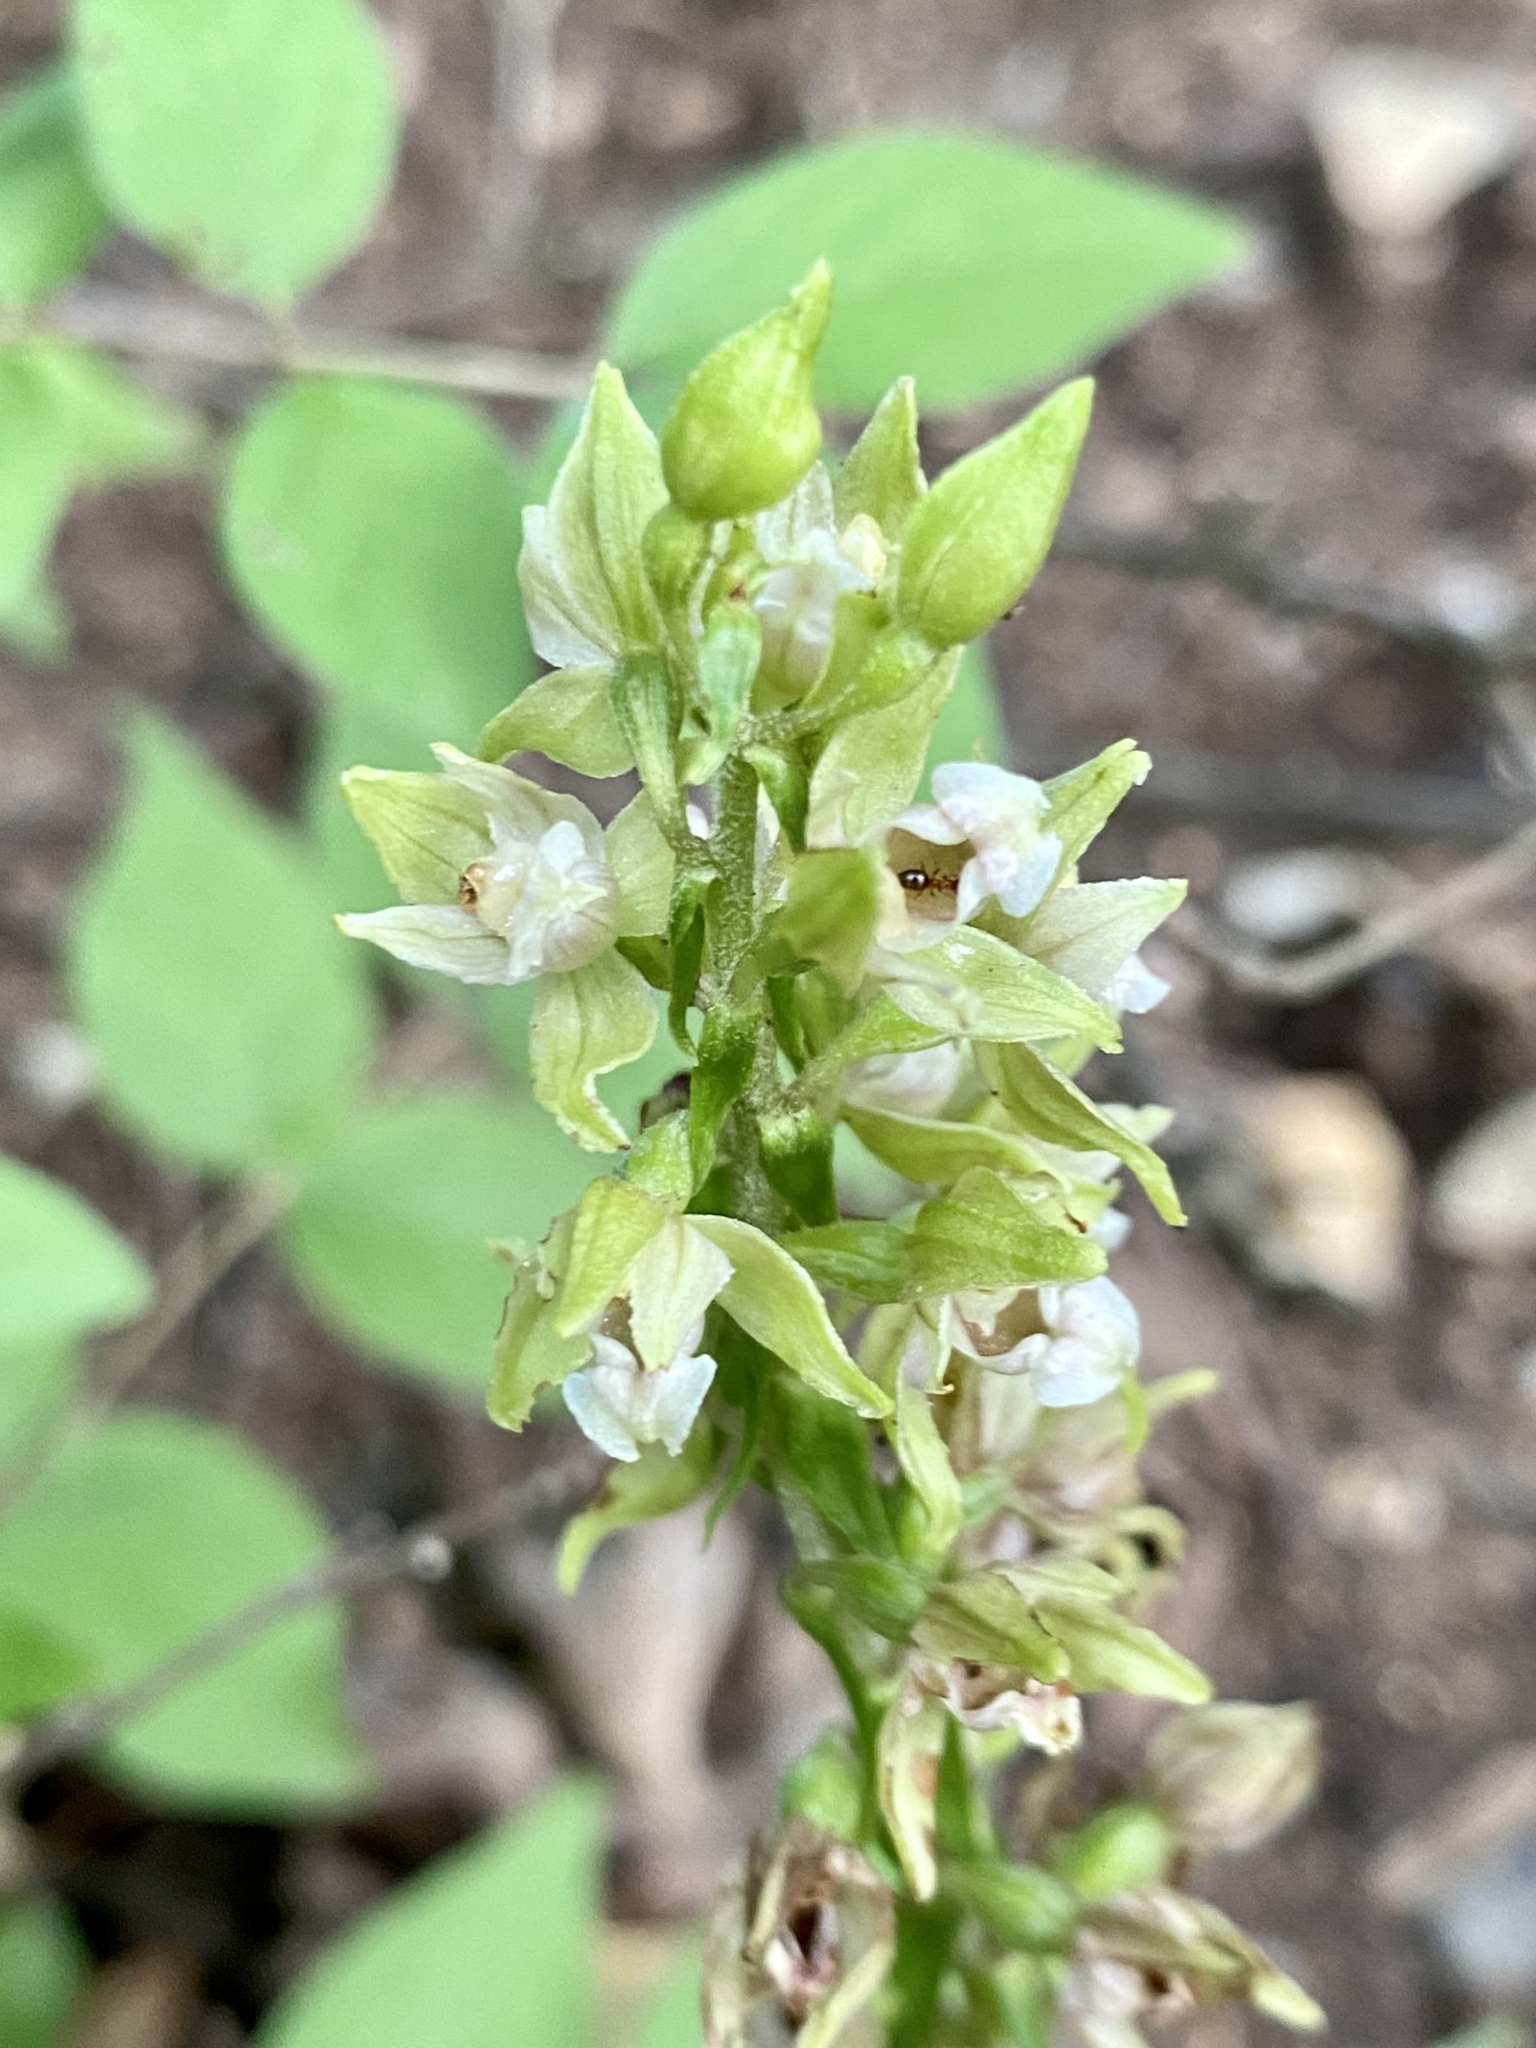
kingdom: Plantae
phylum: Tracheophyta
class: Liliopsida
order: Asparagales
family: Orchidaceae
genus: Epipactis
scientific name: Epipactis helleborine
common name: Broad-leaved helleborine
